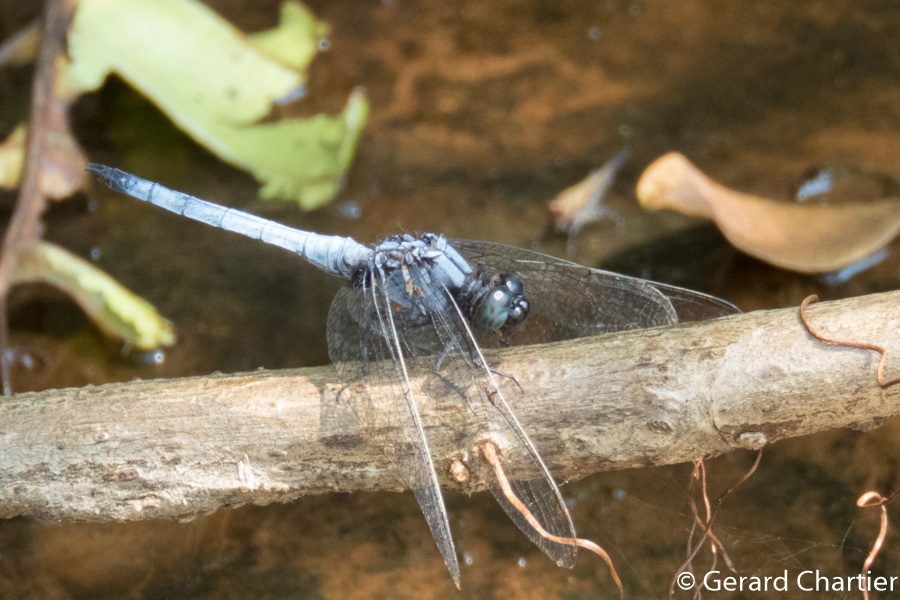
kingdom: Animalia
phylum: Arthropoda
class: Insecta
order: Odonata
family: Libellulidae
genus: Orthetrum
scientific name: Orthetrum glaucum
